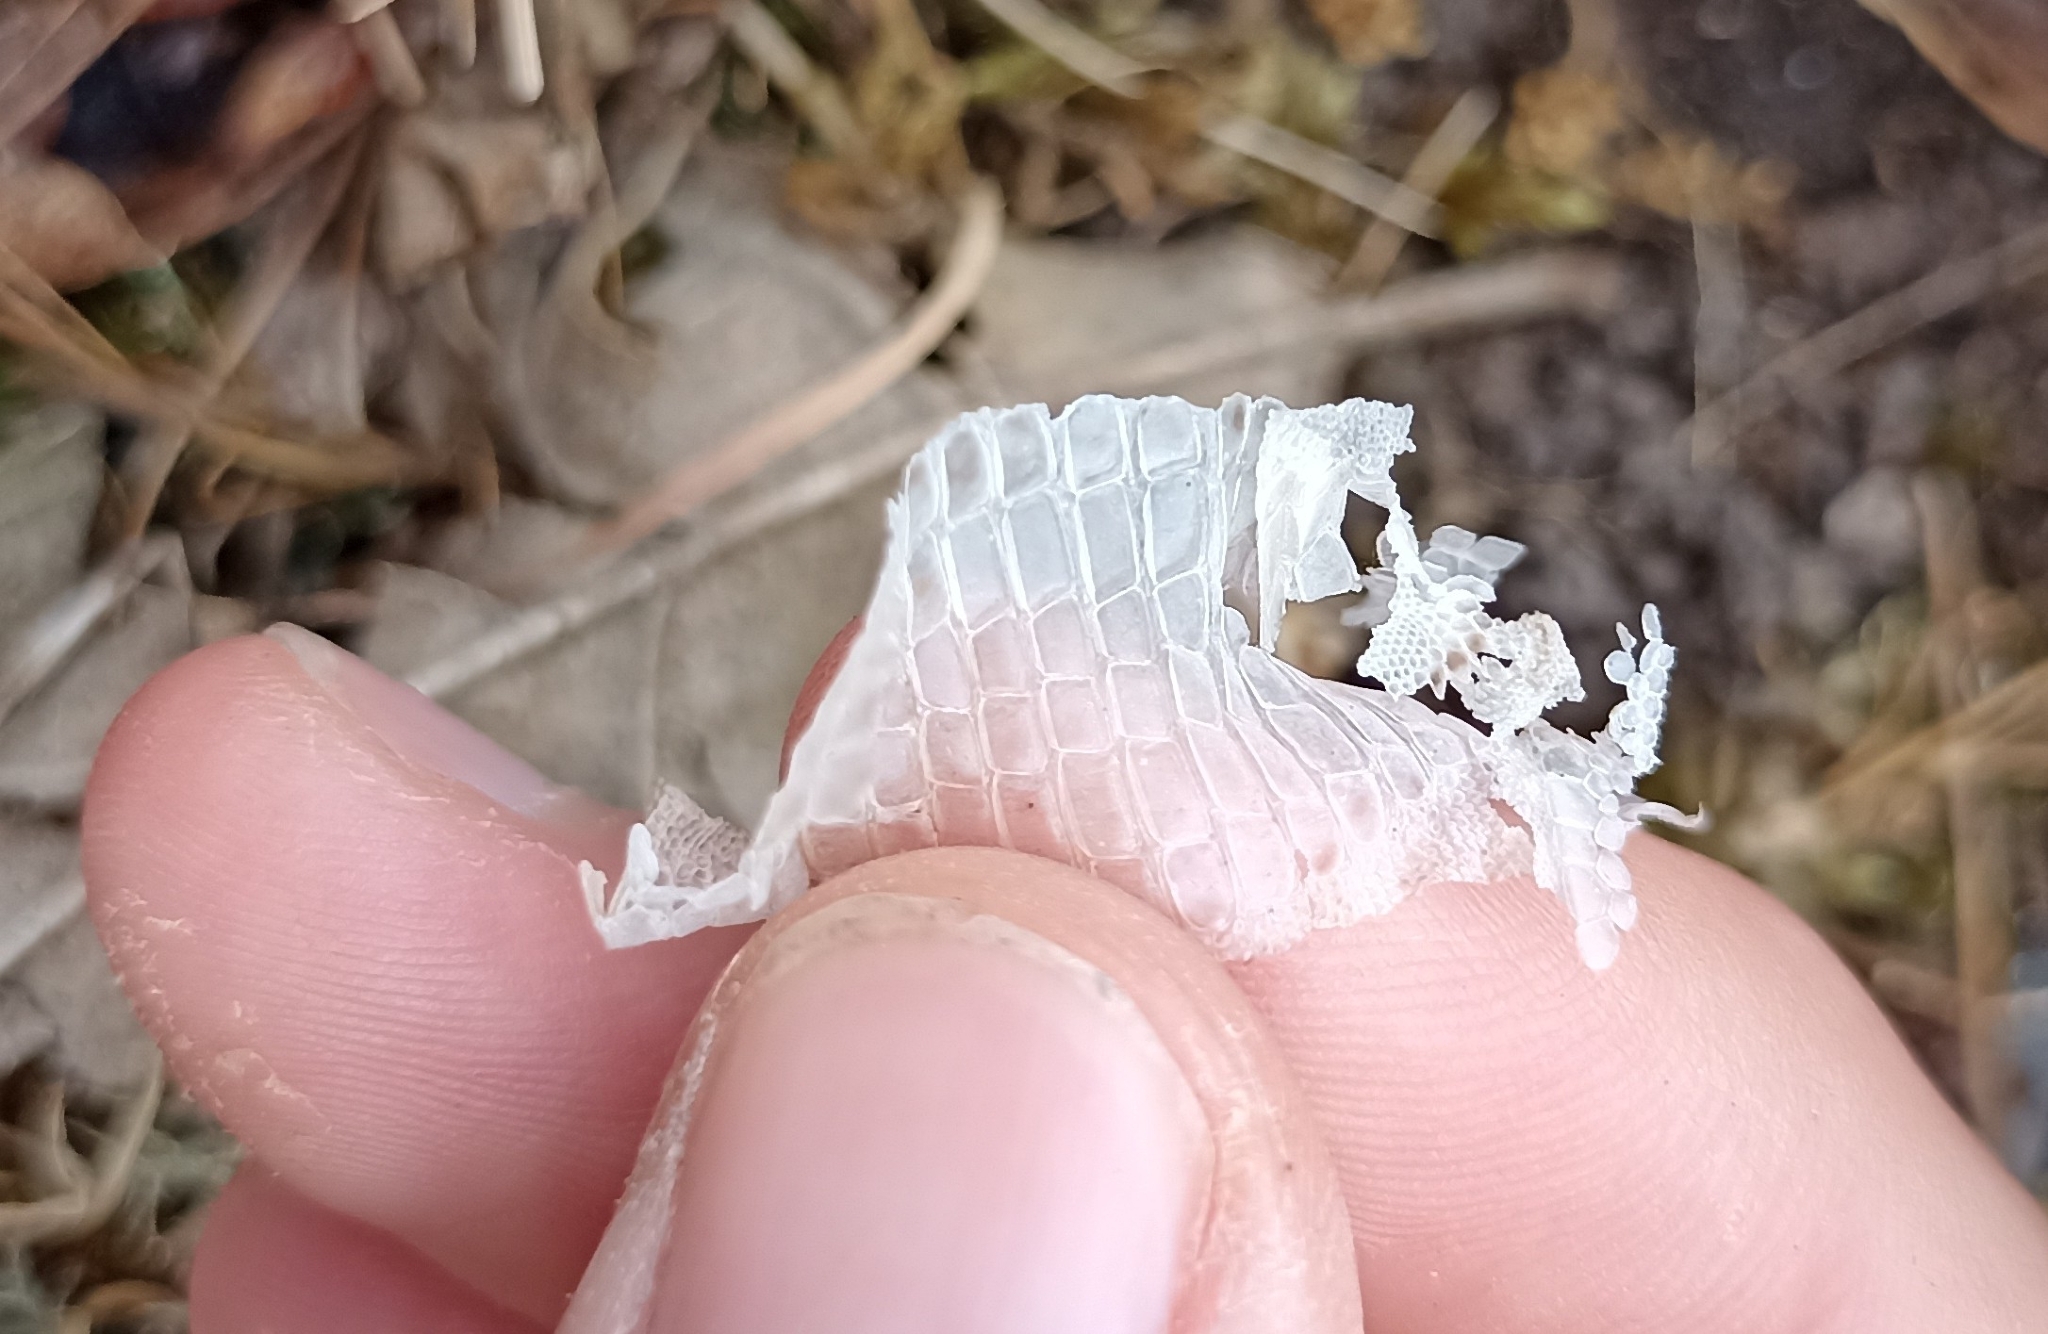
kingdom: Animalia
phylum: Chordata
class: Squamata
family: Lacertidae
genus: Lacerta
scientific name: Lacerta bilineata
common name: Western green lizard
